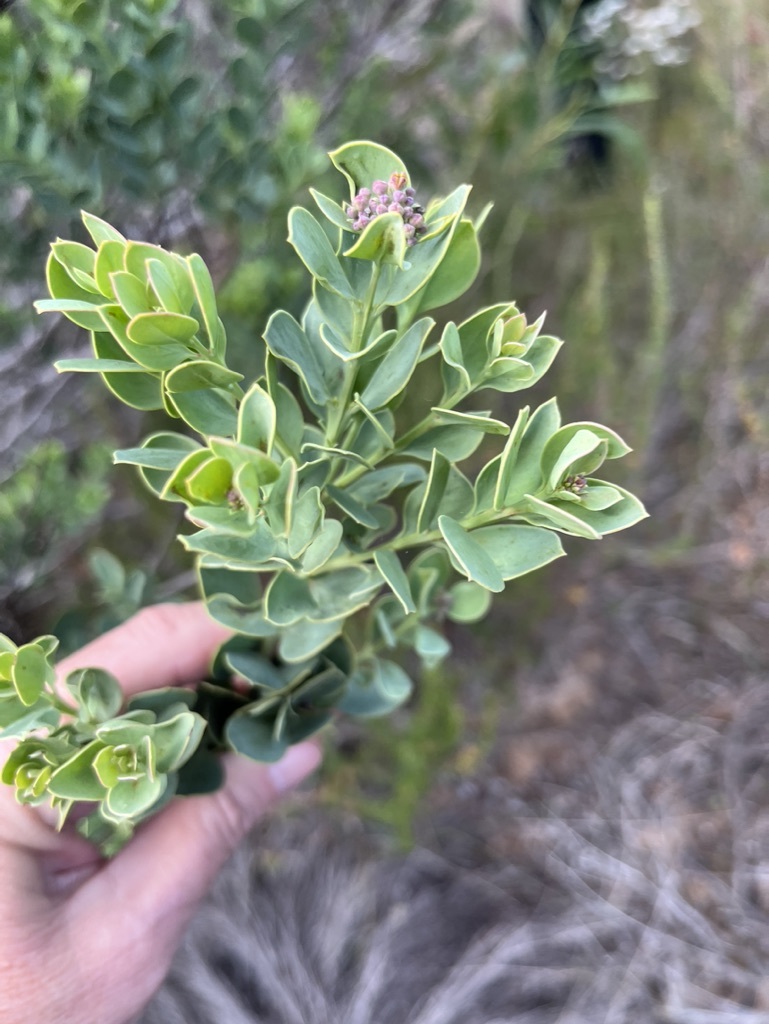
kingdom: Plantae
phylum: Tracheophyta
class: Magnoliopsida
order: Santalales
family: Santalaceae
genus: Osyris
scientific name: Osyris compressa
